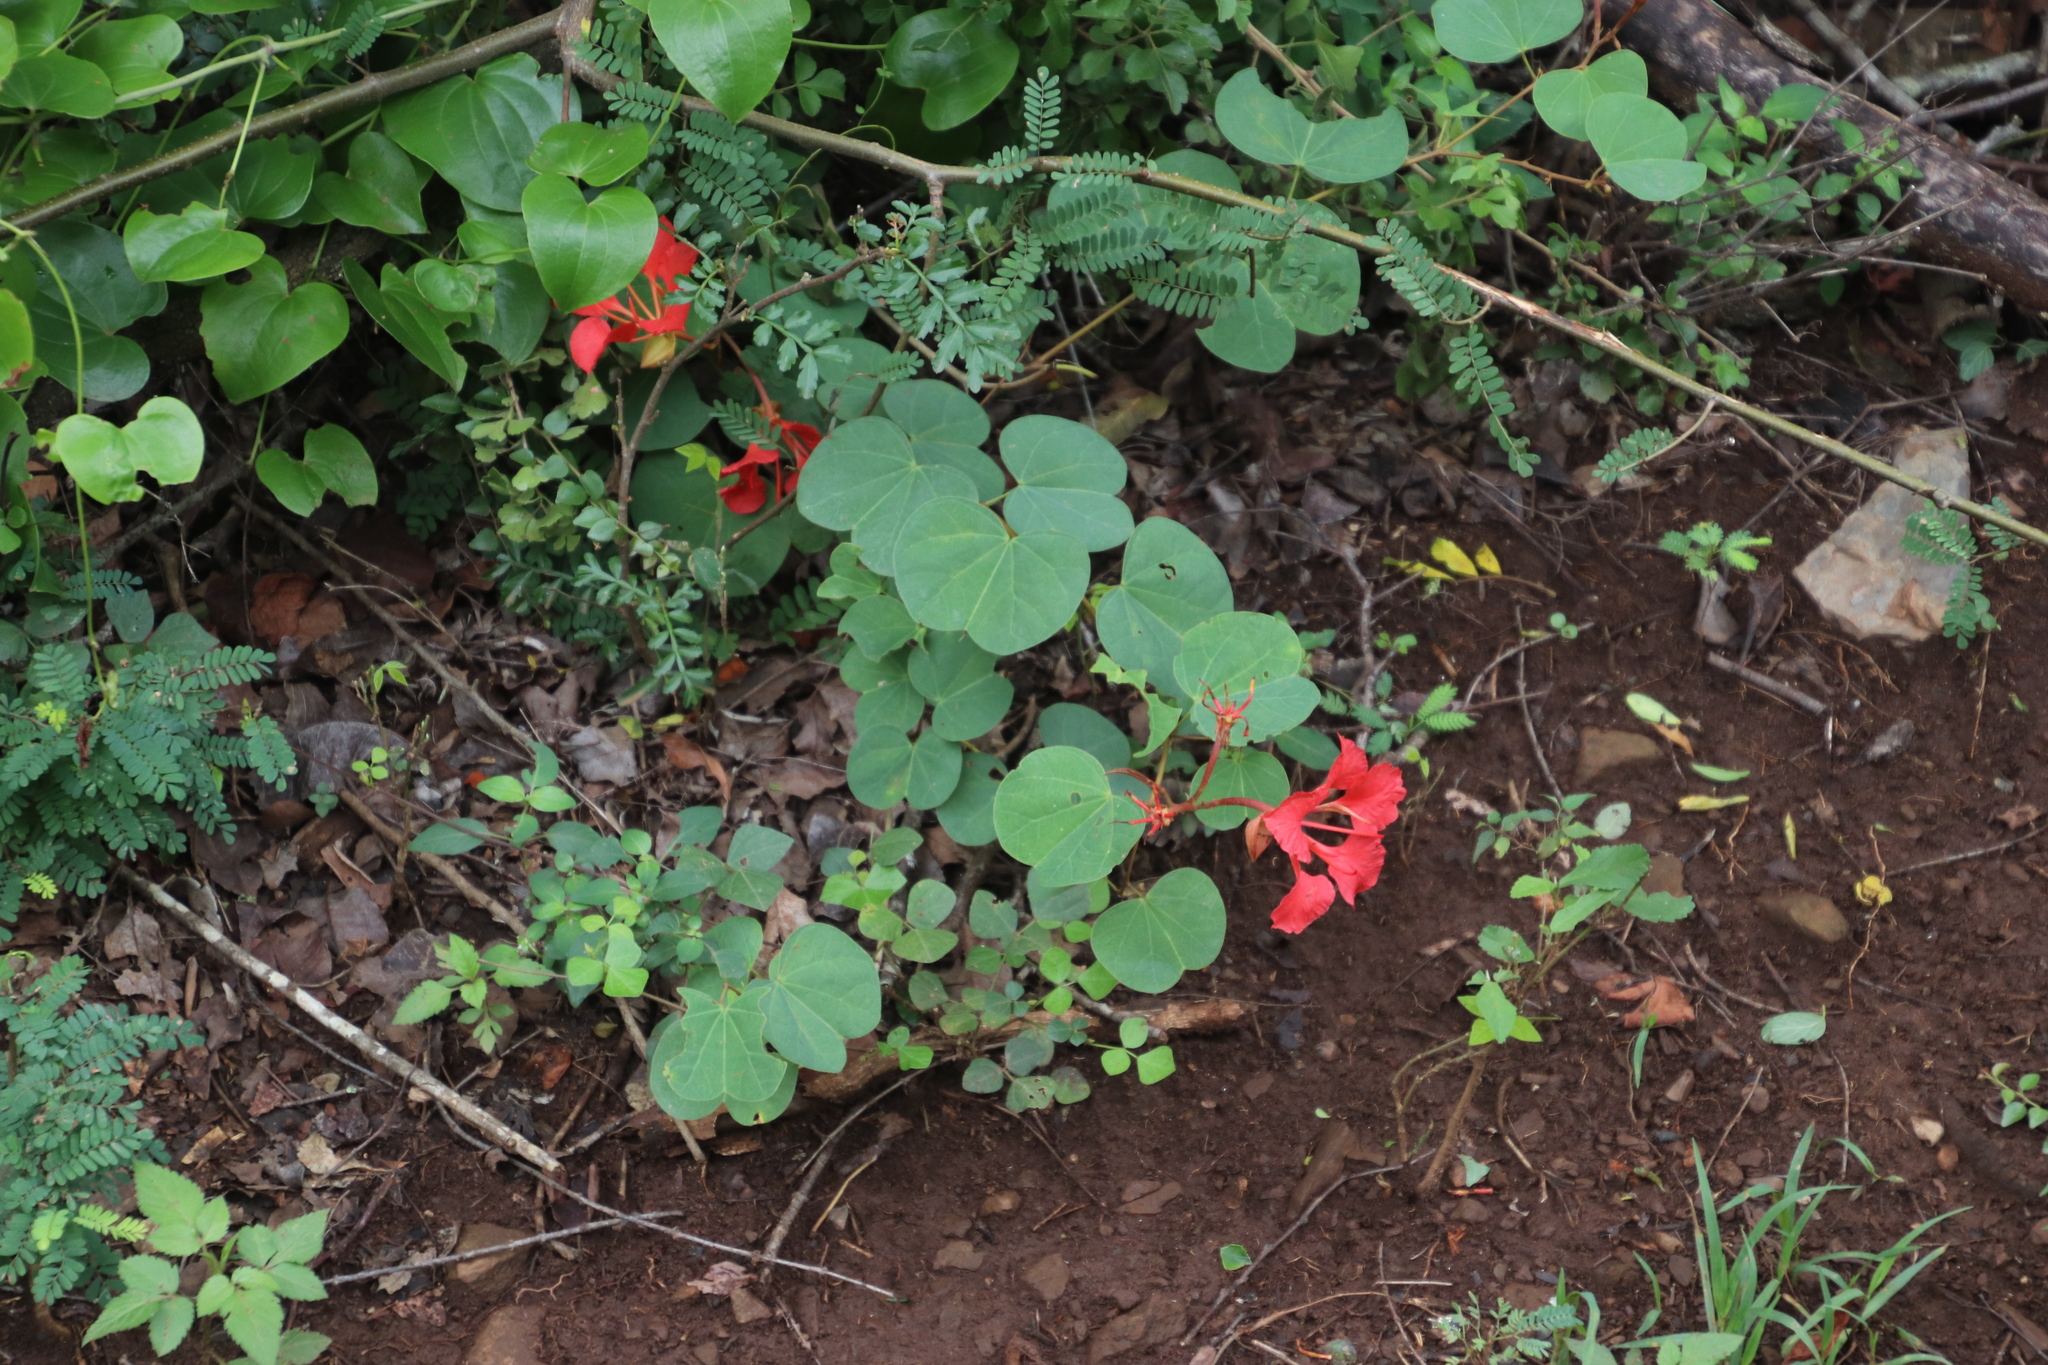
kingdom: Plantae
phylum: Tracheophyta
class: Magnoliopsida
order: Fabales
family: Fabaceae
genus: Bauhinia
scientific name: Bauhinia galpinii
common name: African plume
